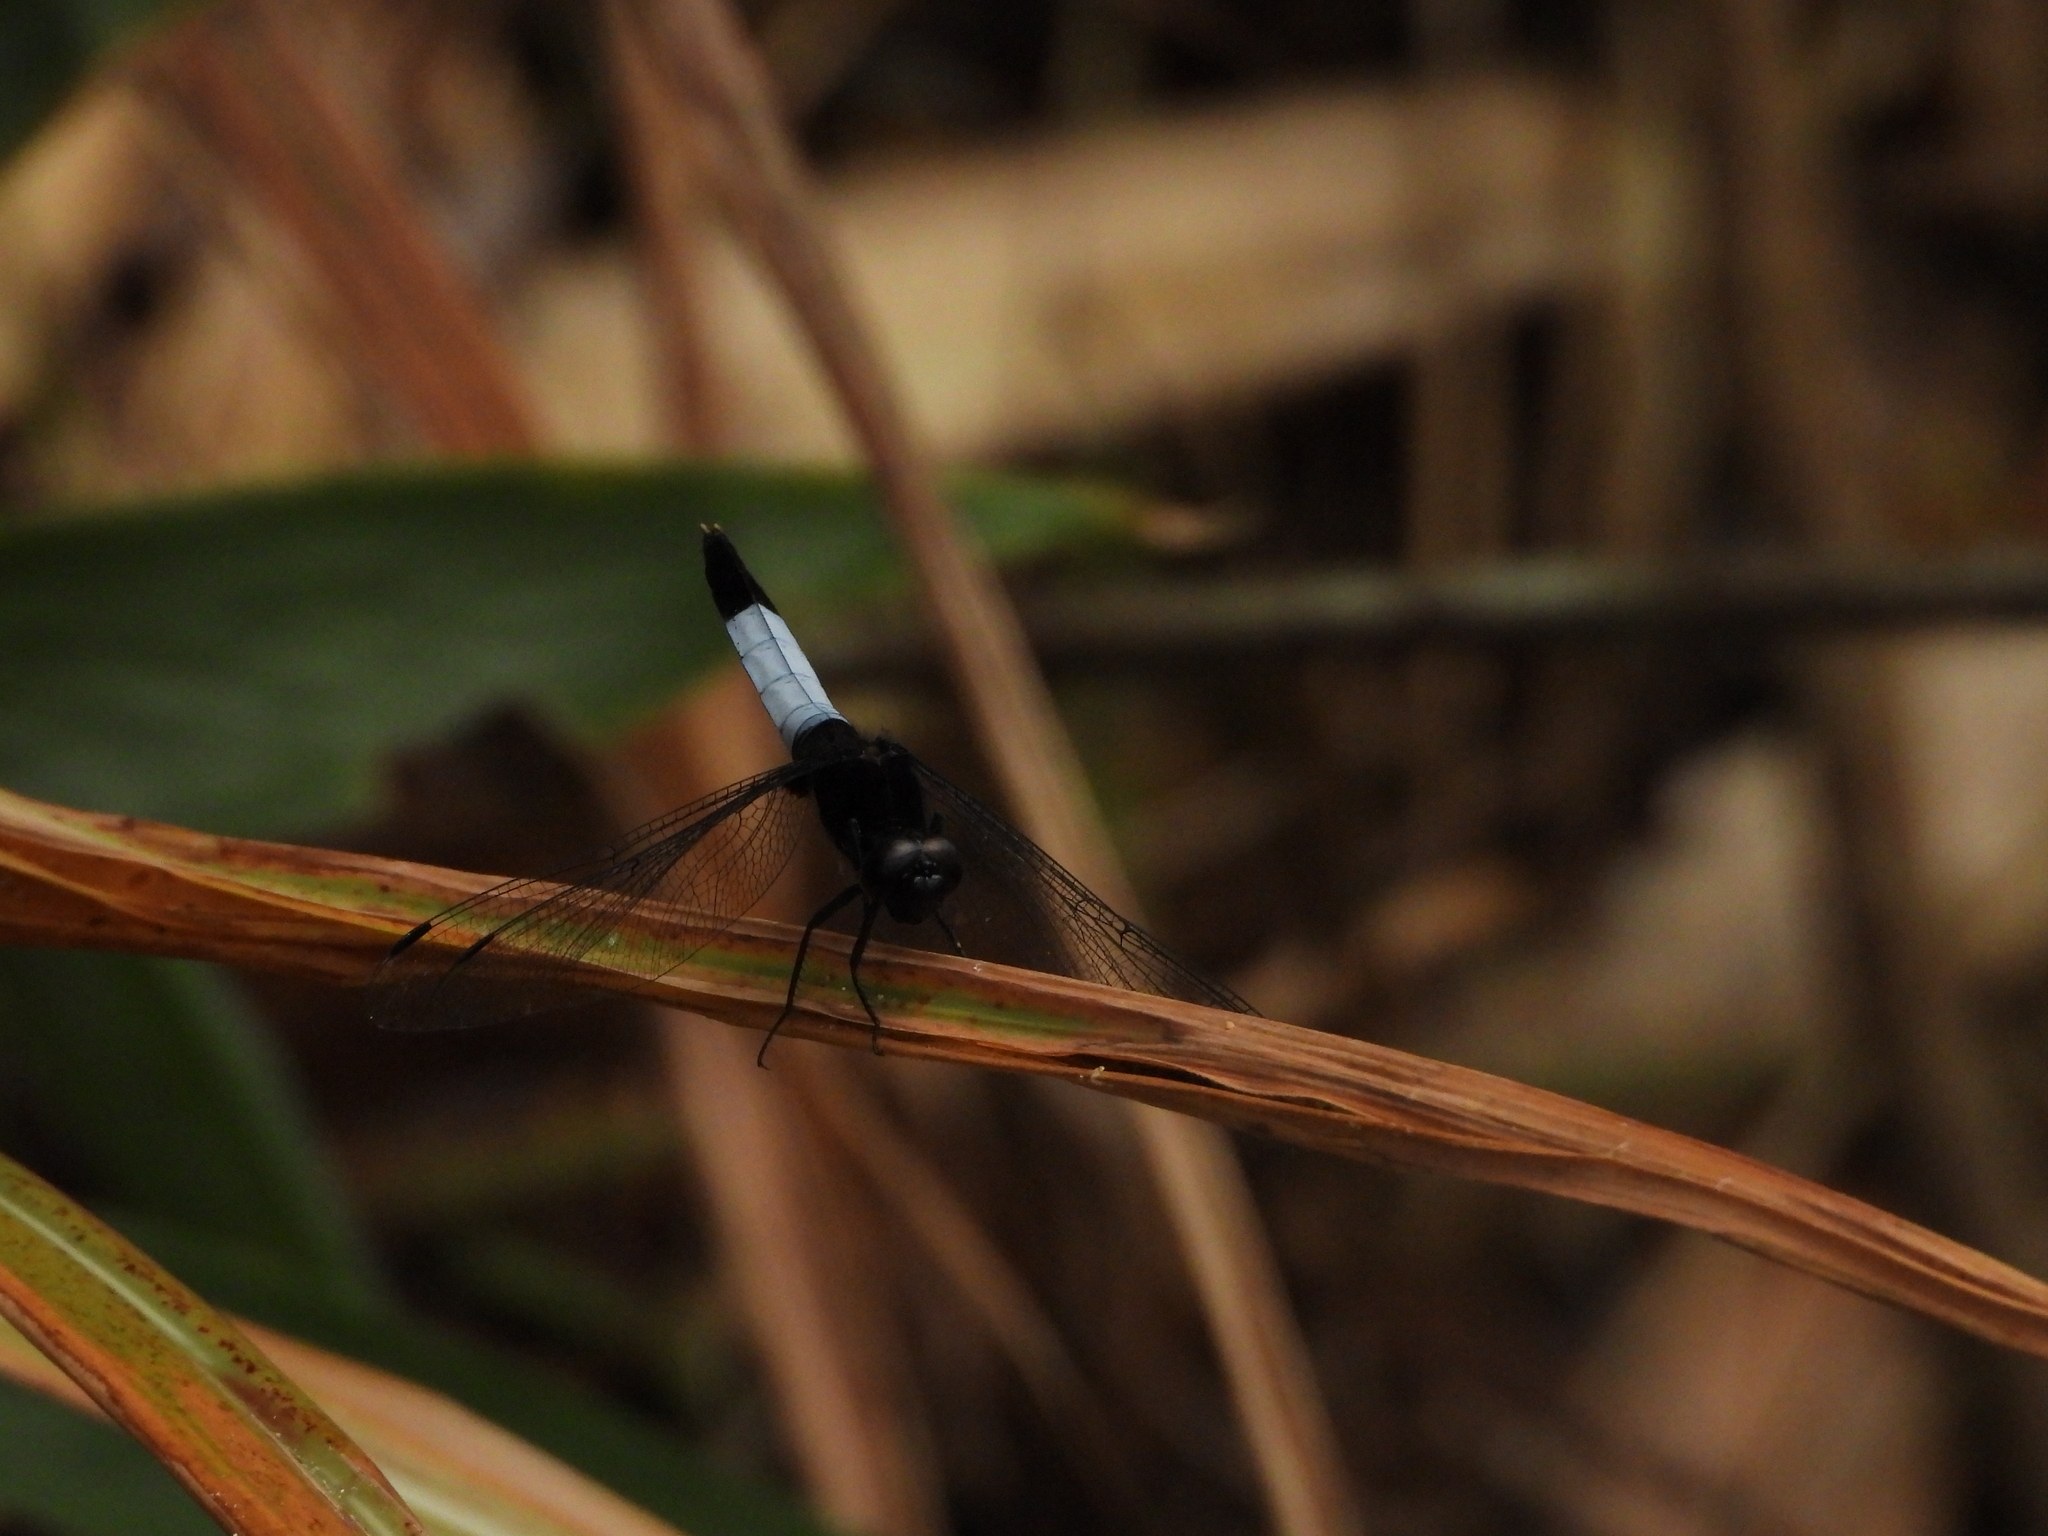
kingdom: Animalia
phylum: Arthropoda
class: Insecta
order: Odonata
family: Libellulidae
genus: Orthetrum
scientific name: Orthetrum triangulare
